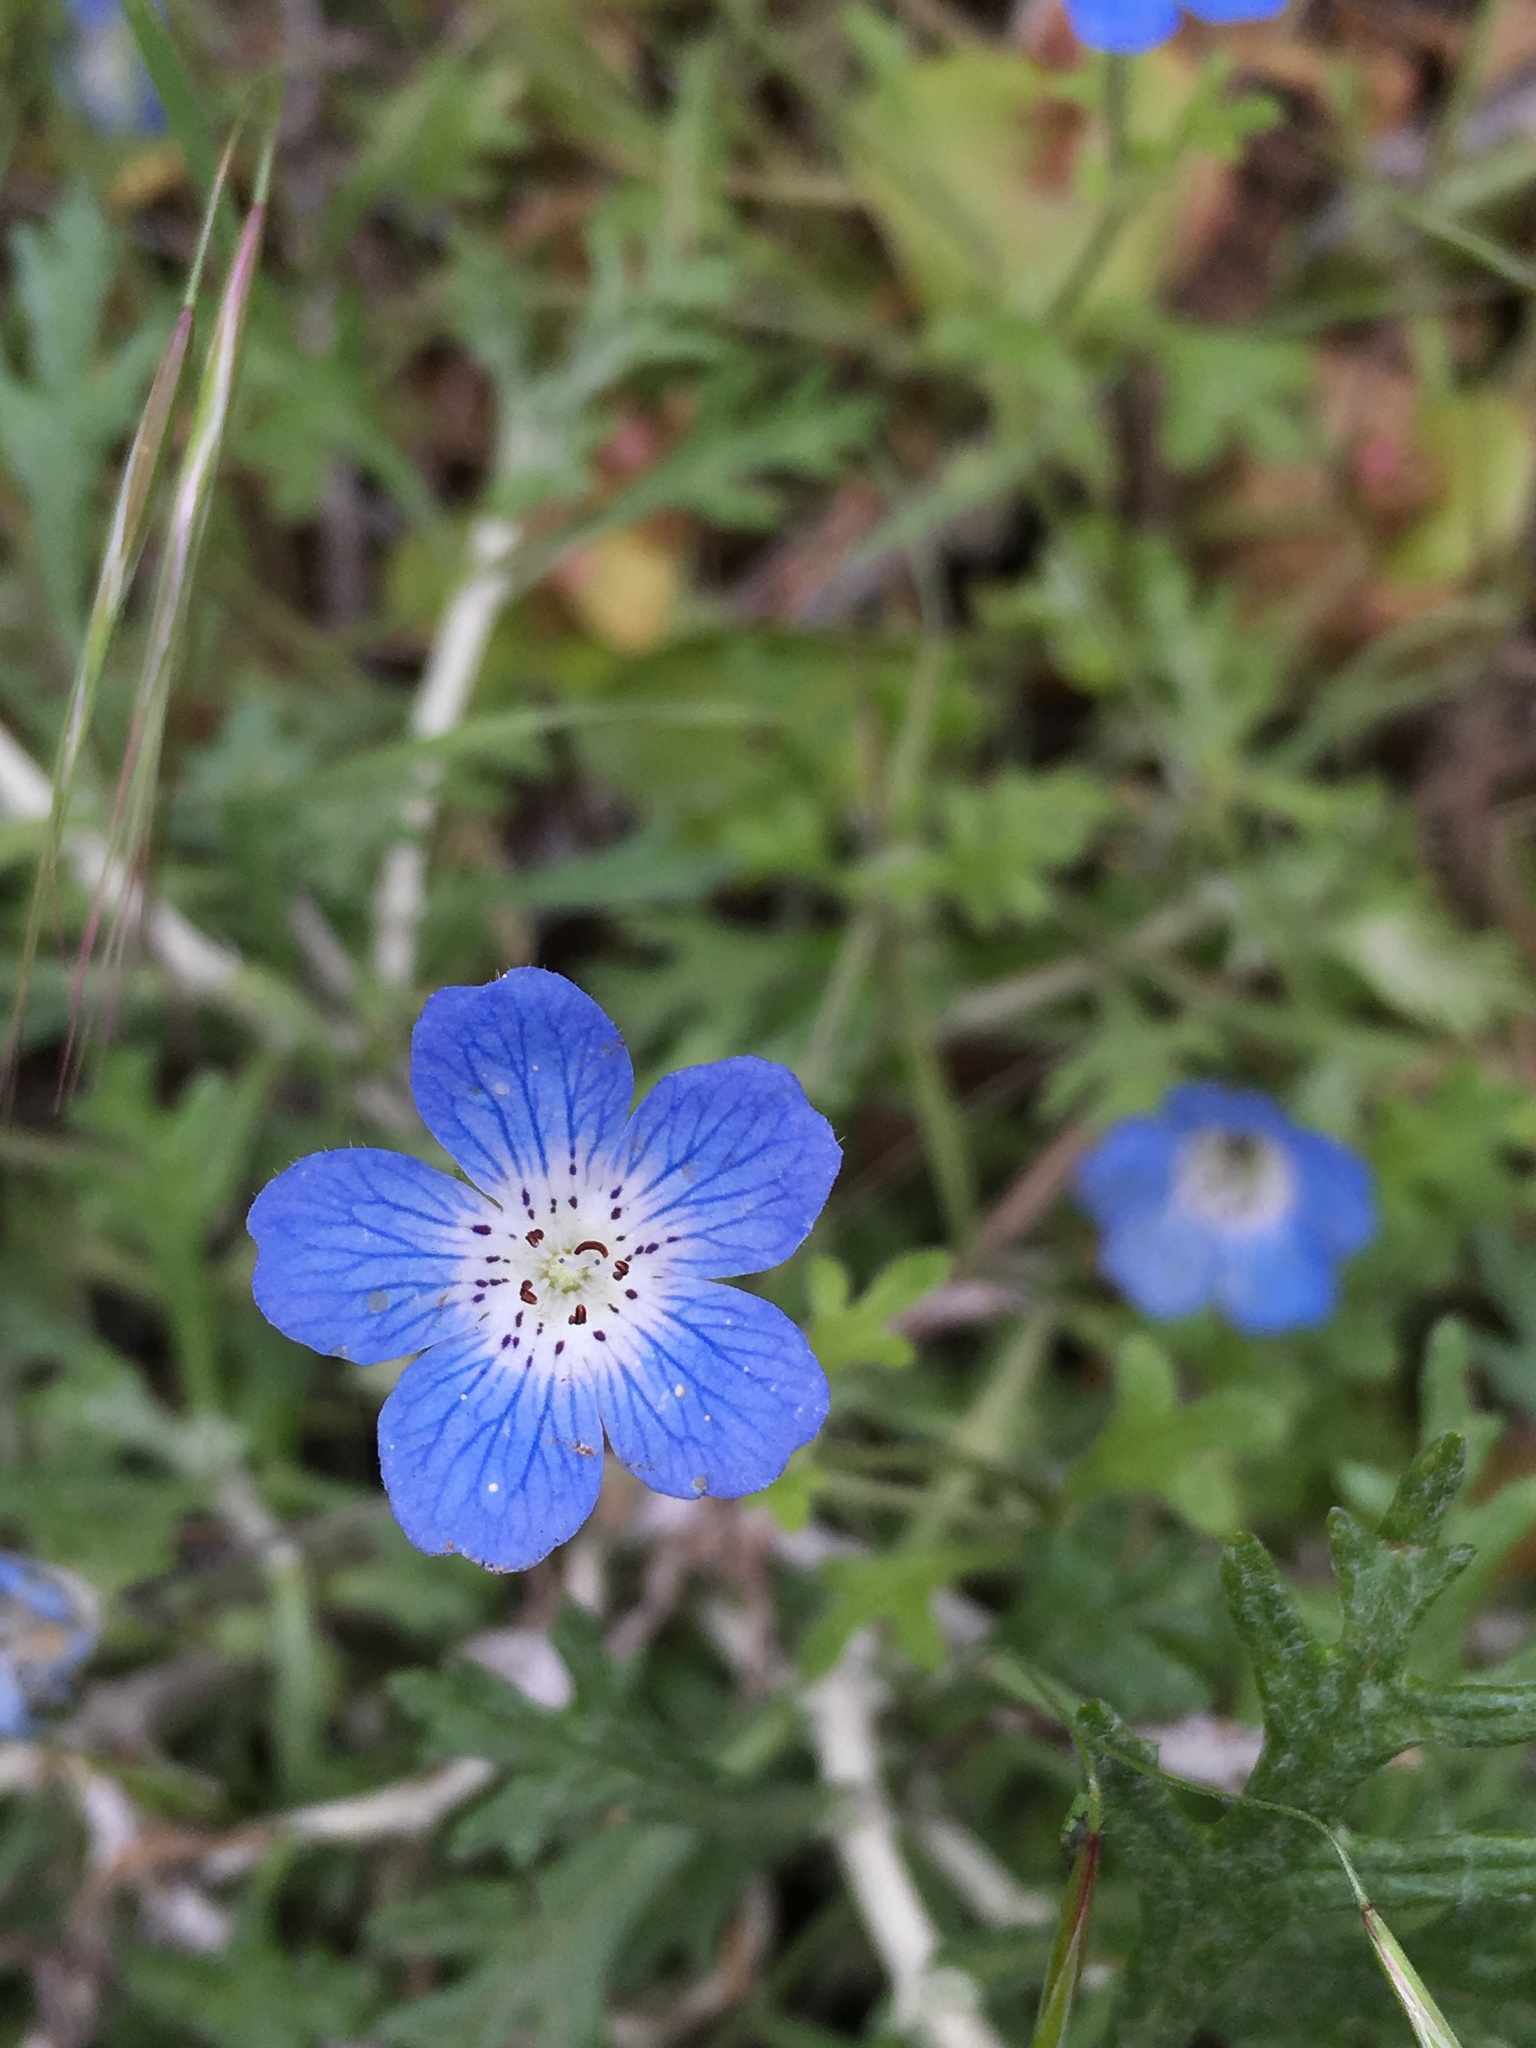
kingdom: Plantae
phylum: Tracheophyta
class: Magnoliopsida
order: Boraginales
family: Hydrophyllaceae
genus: Nemophila
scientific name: Nemophila menziesii
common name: Baby's-blue-eyes
